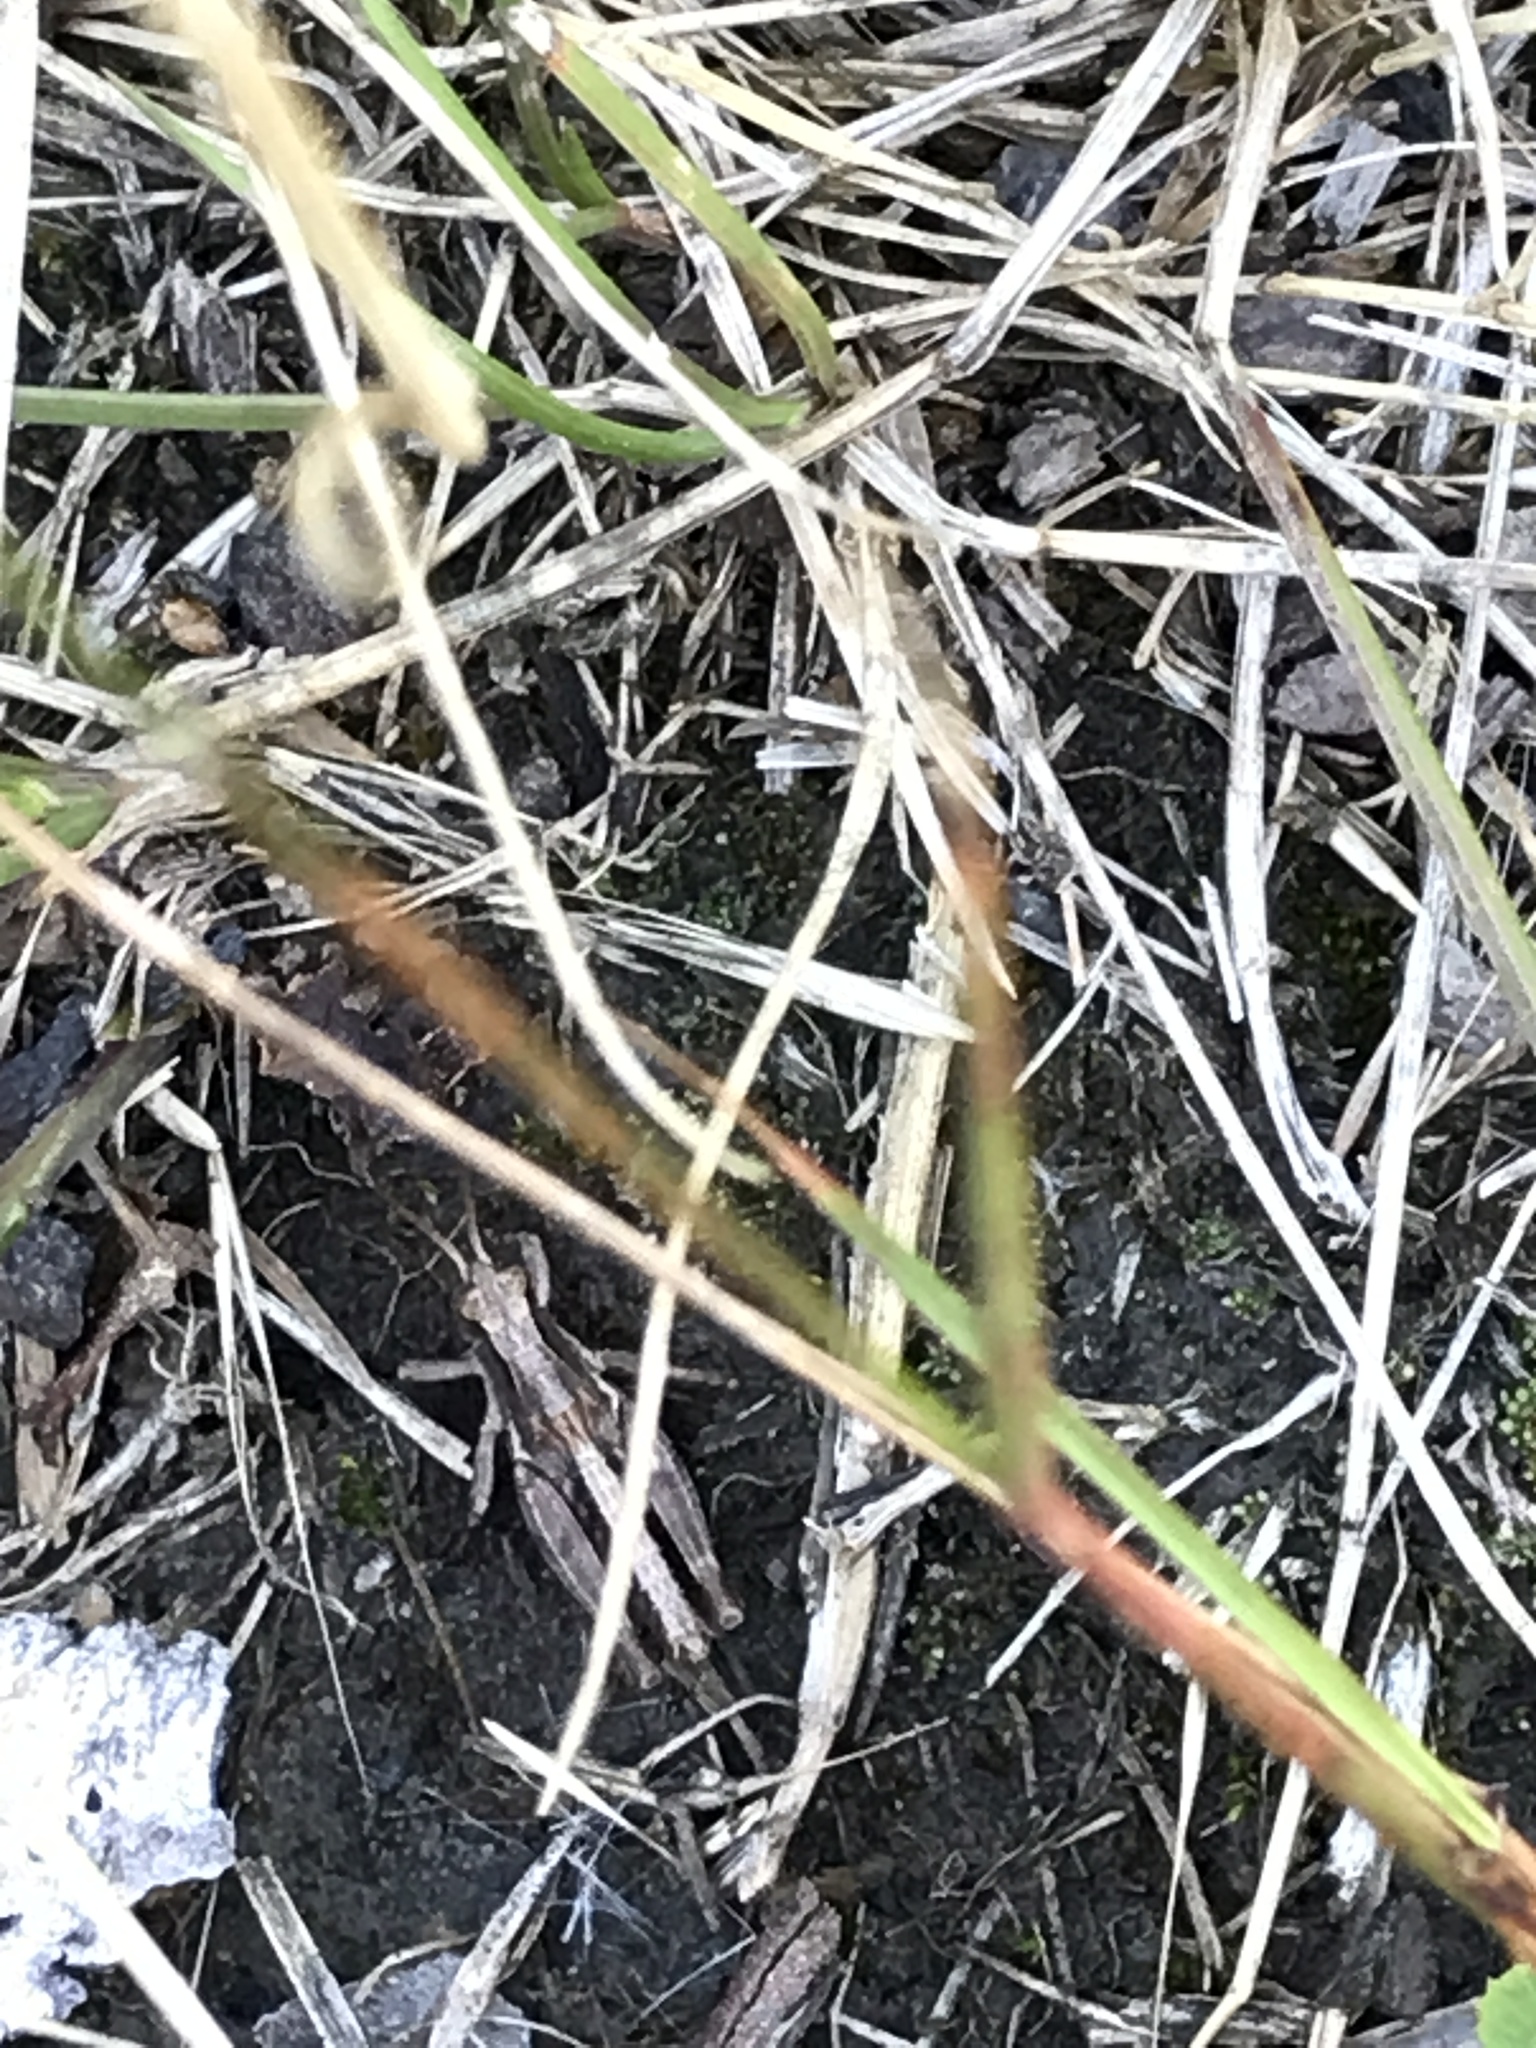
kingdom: Animalia
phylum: Arthropoda
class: Insecta
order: Orthoptera
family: Acrididae
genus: Phaulacridium
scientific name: Phaulacridium marginale
